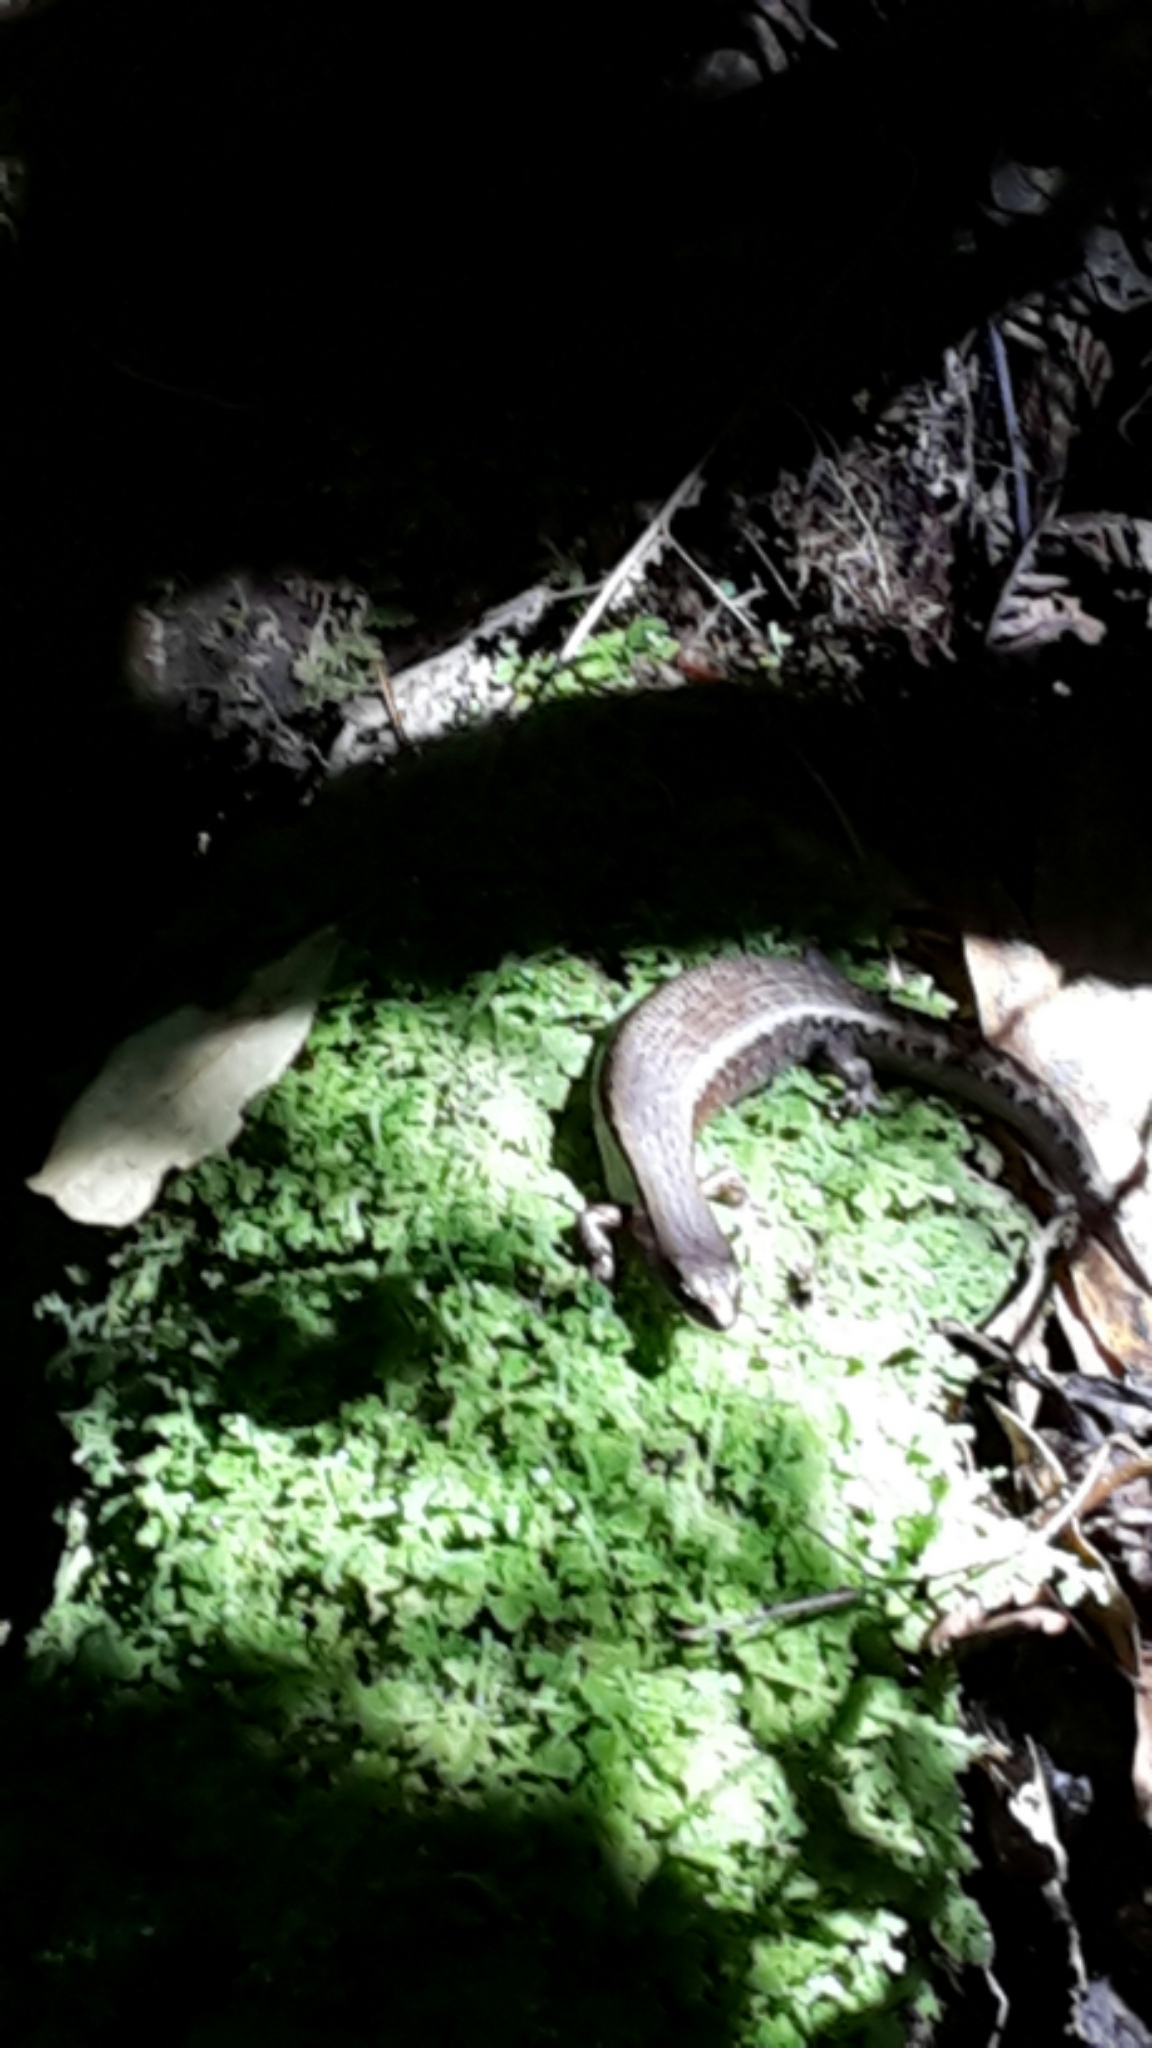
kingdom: Animalia
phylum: Chordata
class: Squamata
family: Scincidae
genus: Oligosoma
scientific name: Oligosoma ornatum
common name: Gray's ornate skink
